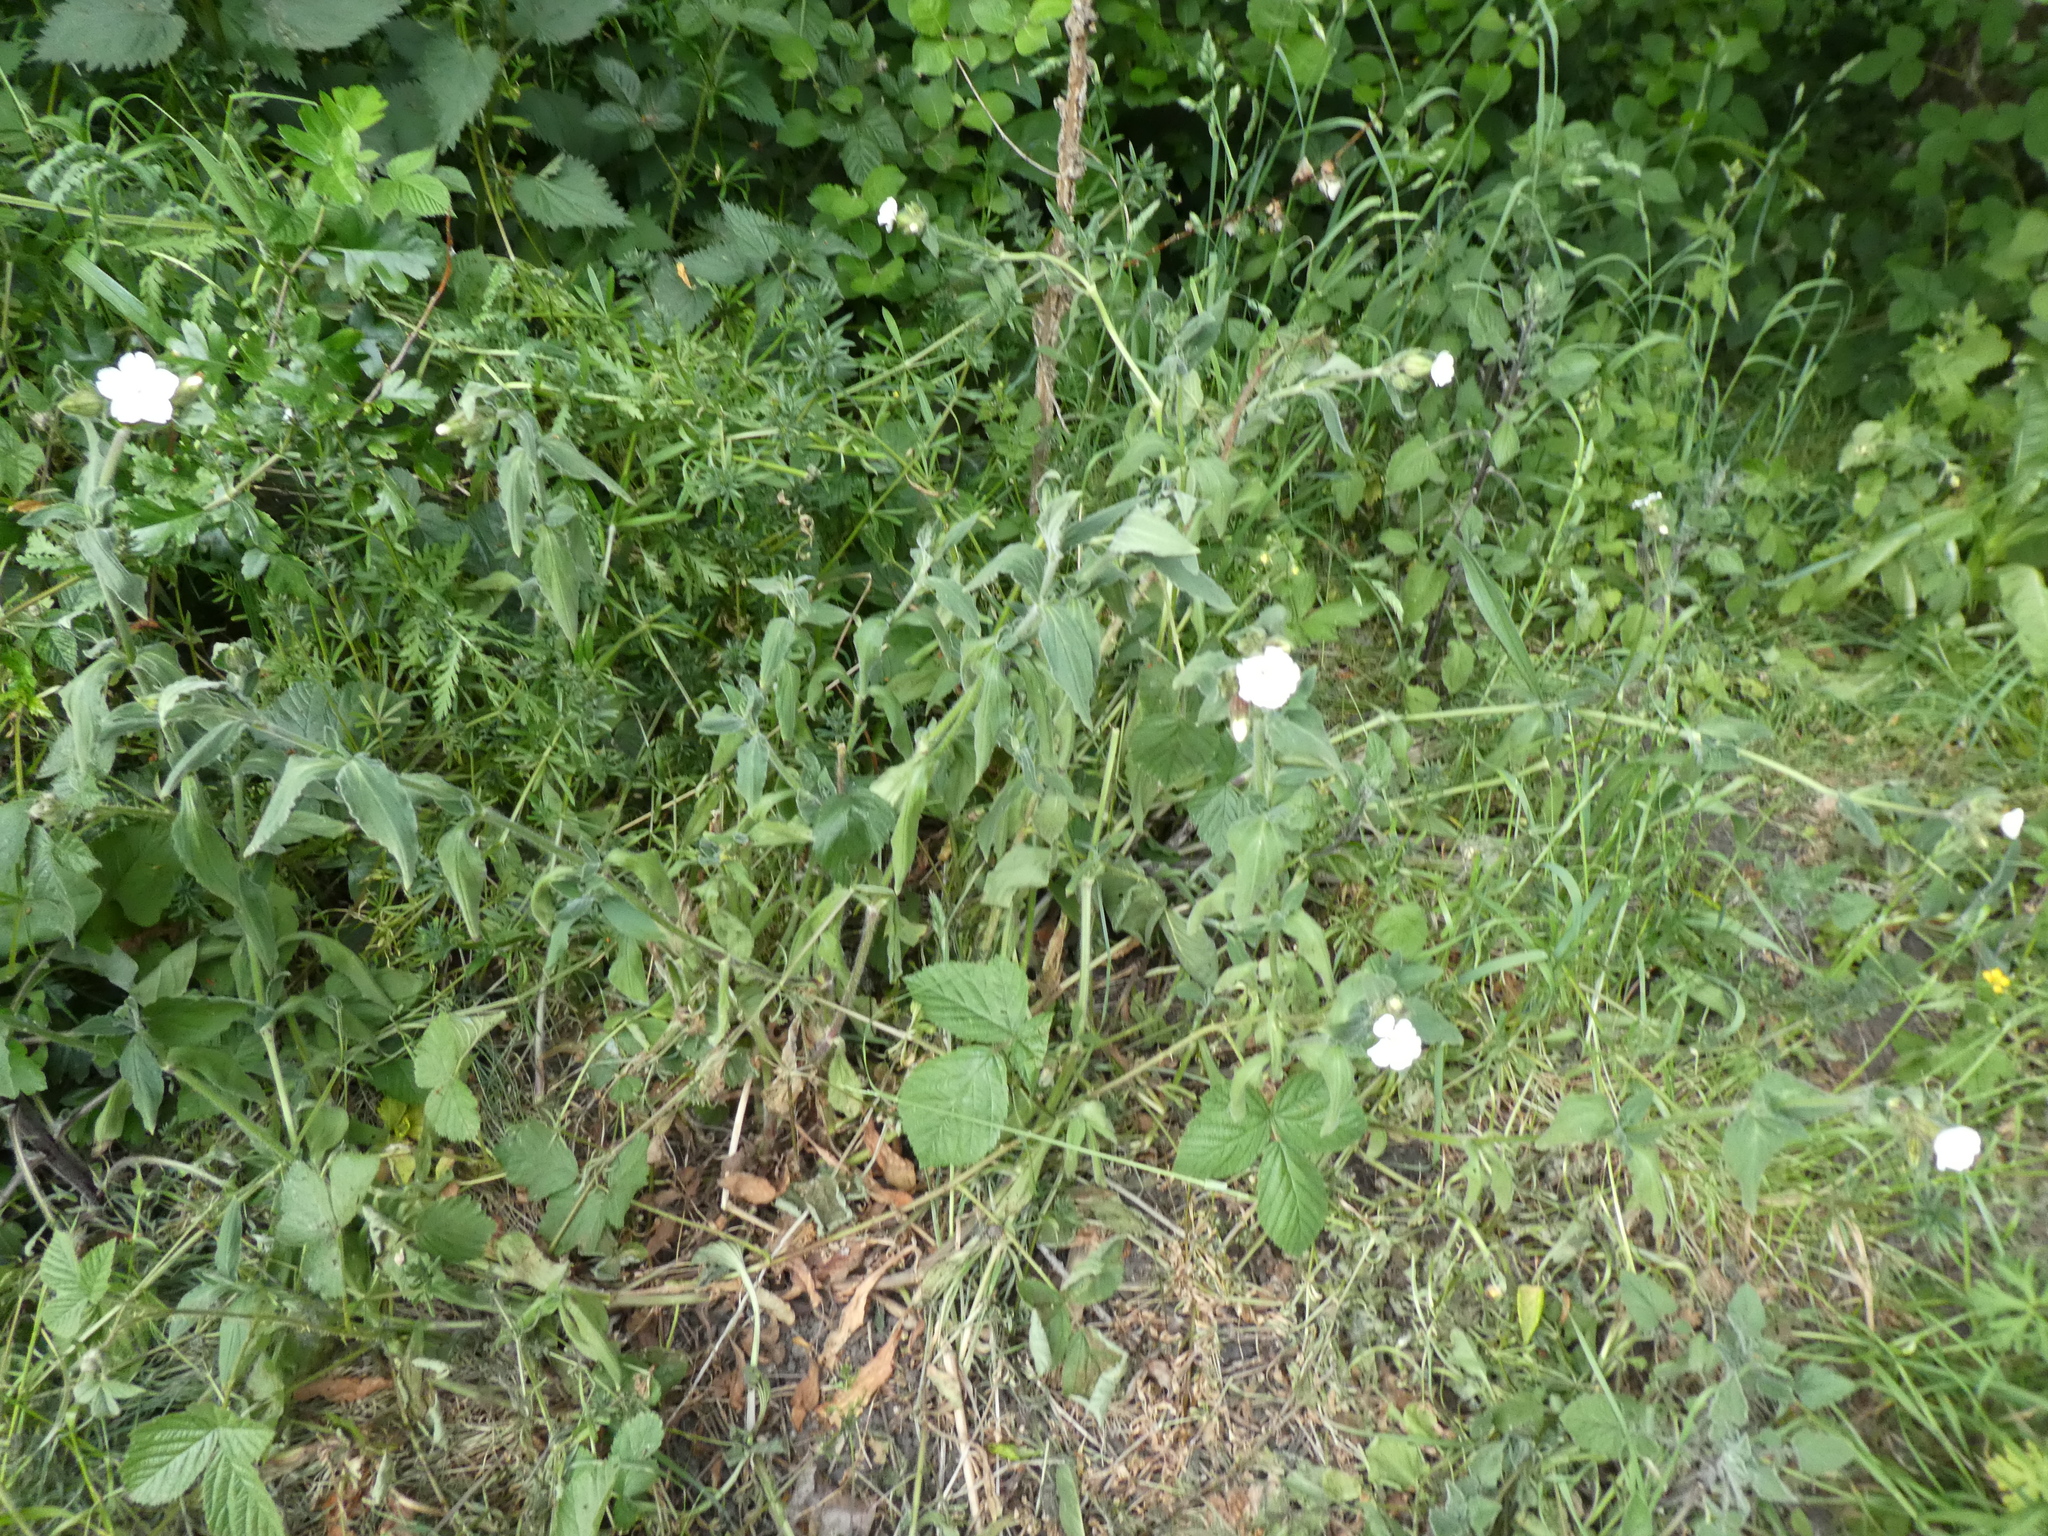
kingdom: Plantae
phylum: Tracheophyta
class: Magnoliopsida
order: Caryophyllales
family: Caryophyllaceae
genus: Silene
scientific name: Silene latifolia
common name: White campion
